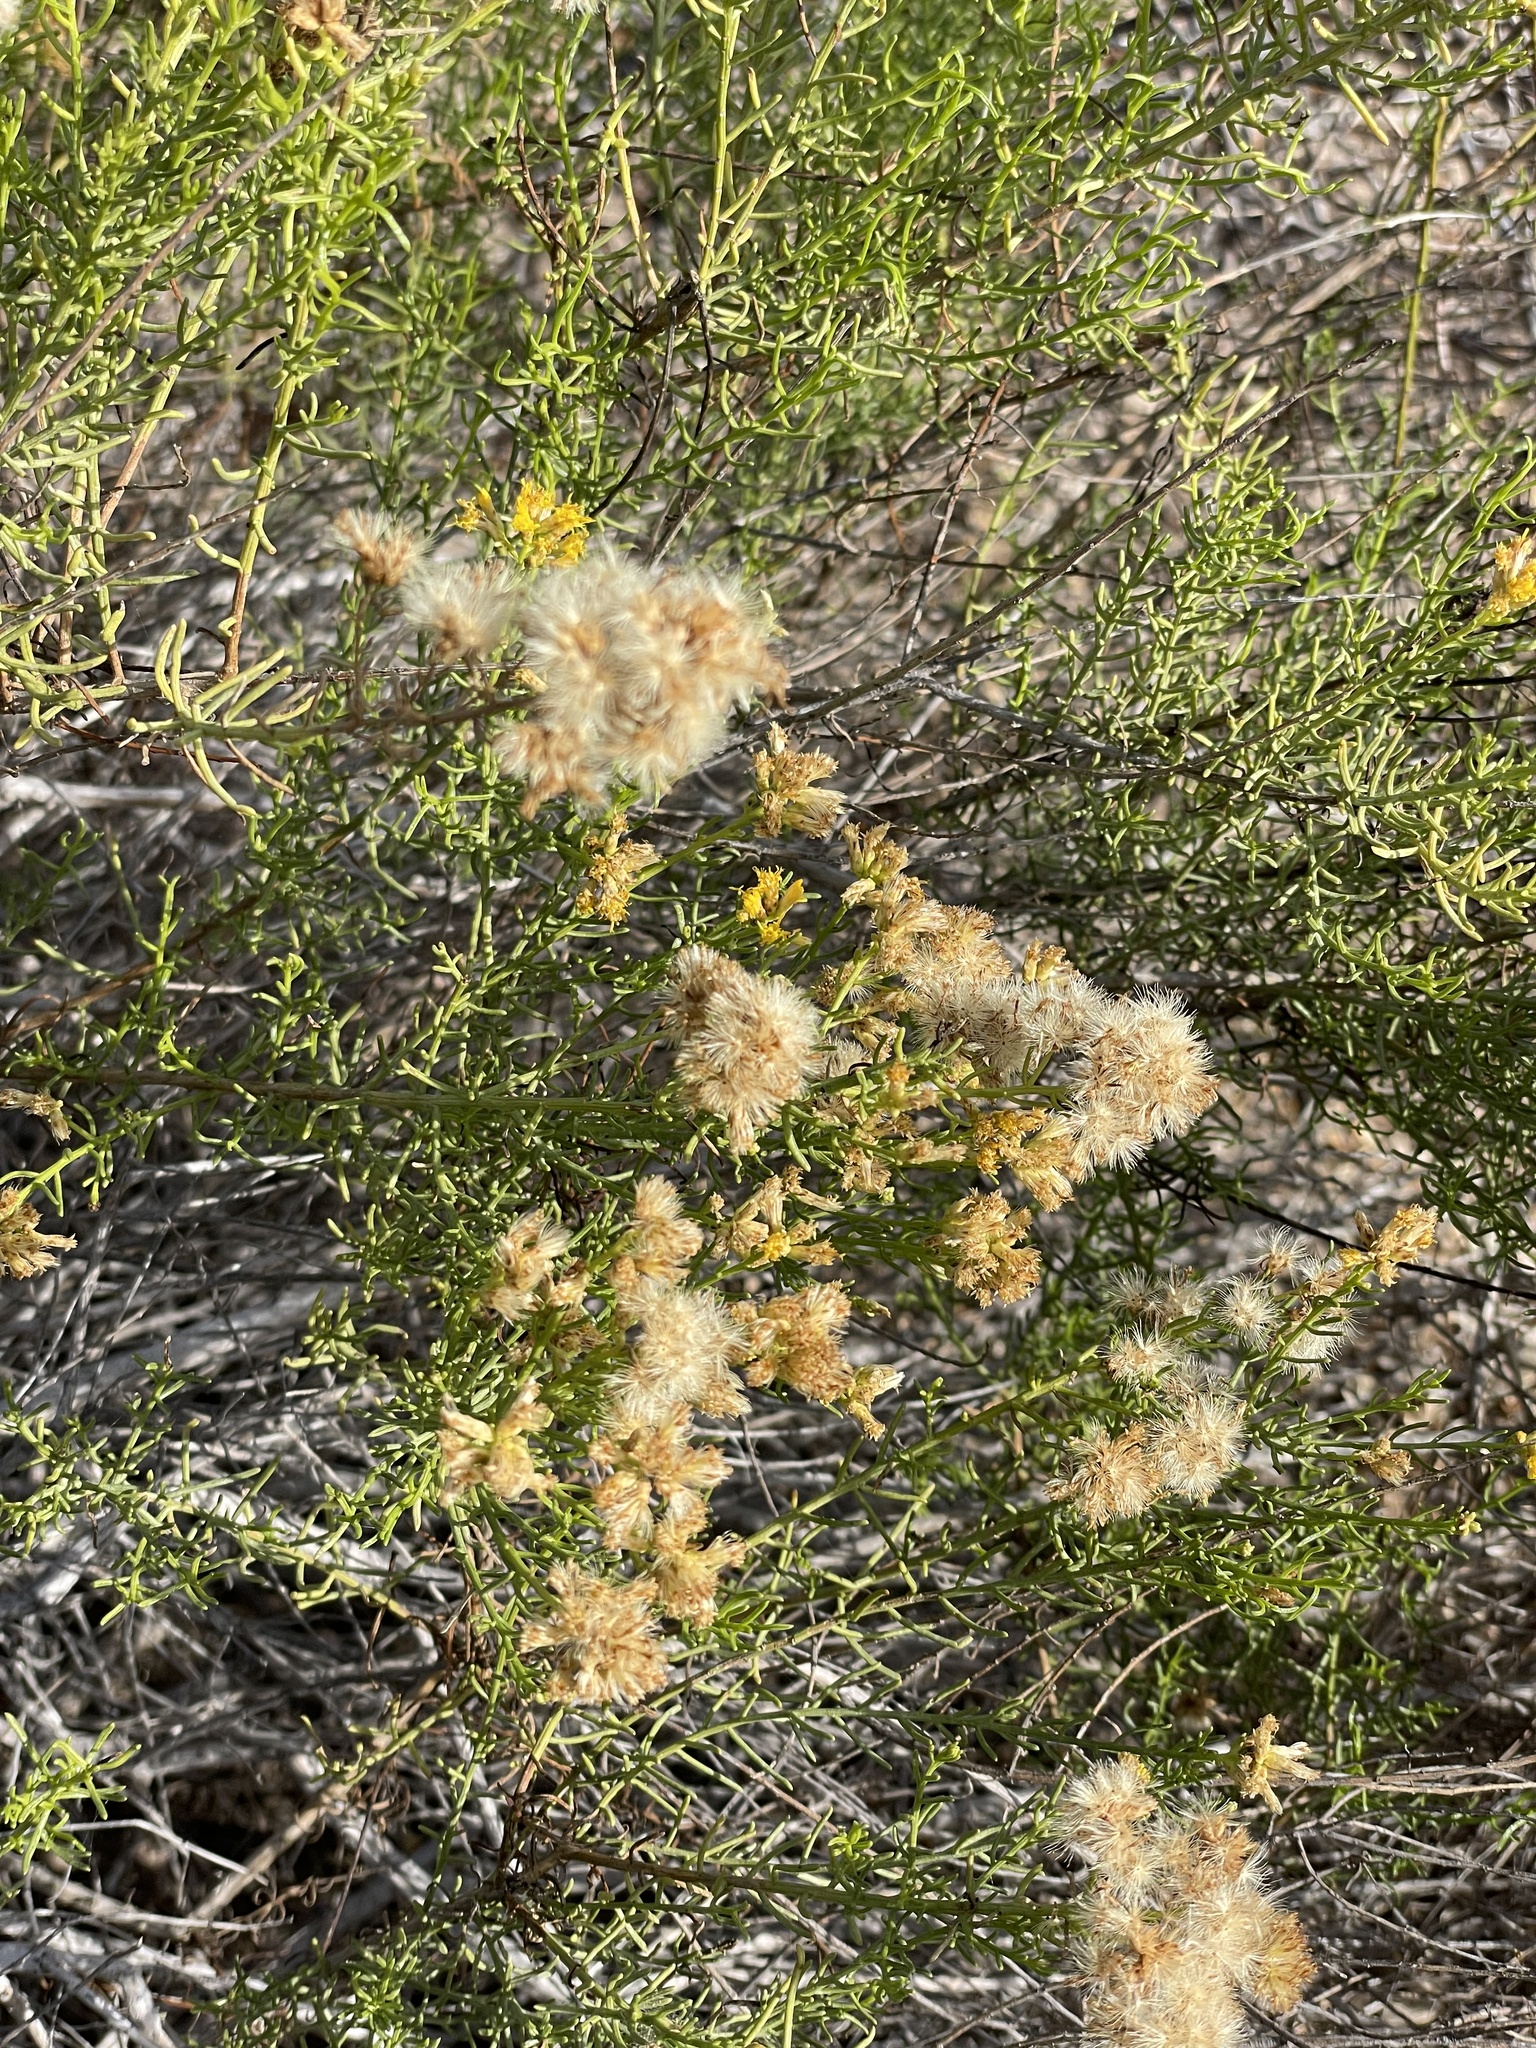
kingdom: Plantae
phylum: Tracheophyta
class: Magnoliopsida
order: Asterales
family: Asteraceae
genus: Gundlachia
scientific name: Gundlachia diffusa
